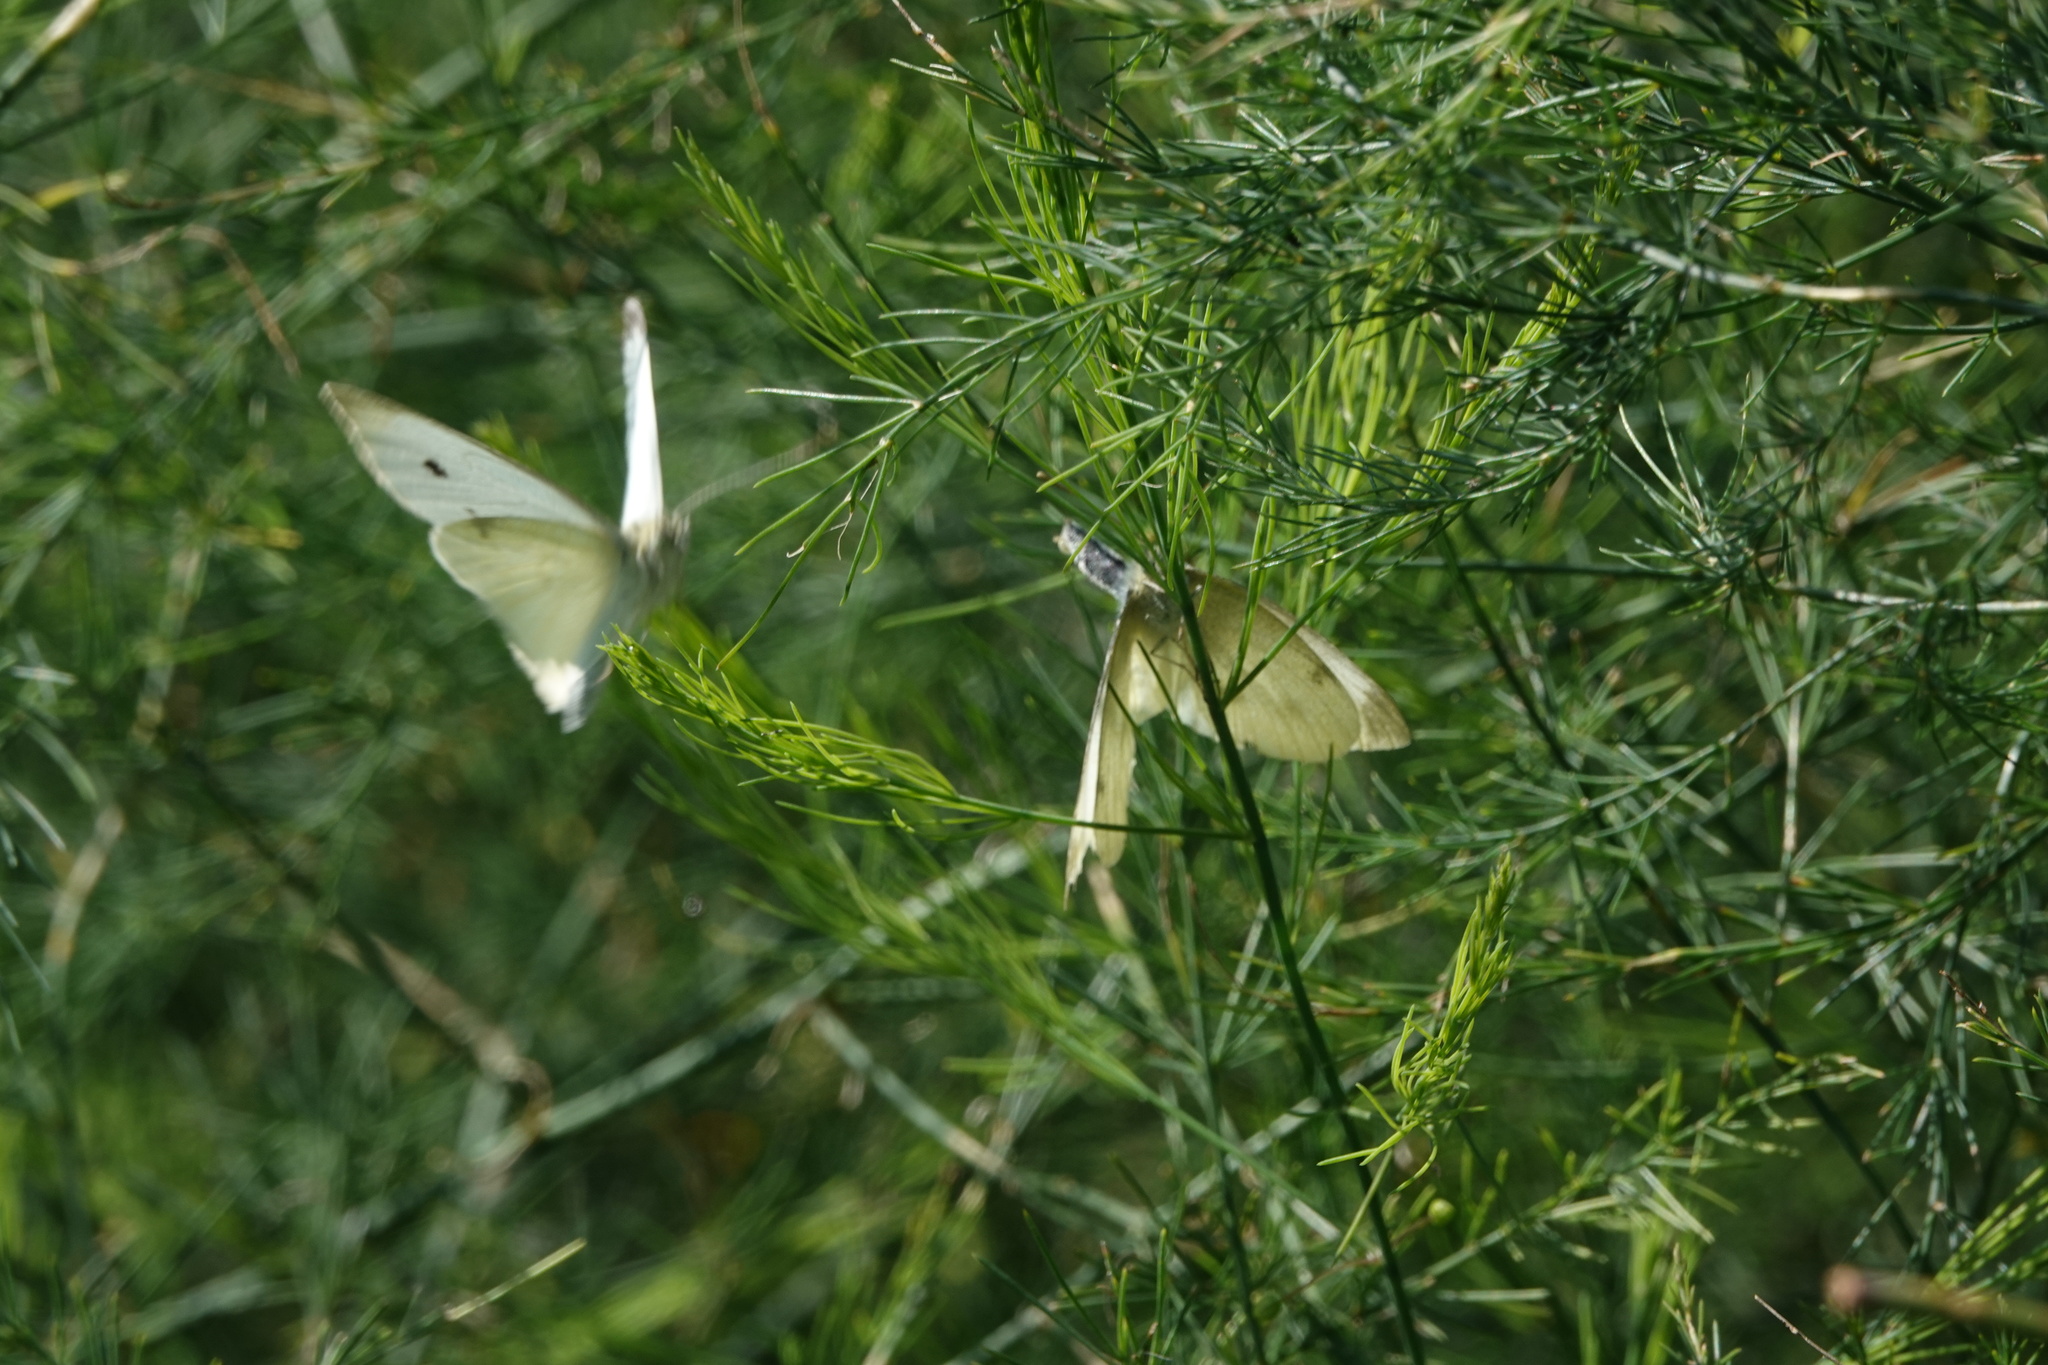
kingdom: Animalia
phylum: Arthropoda
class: Insecta
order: Lepidoptera
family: Pieridae
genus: Pieris
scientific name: Pieris rapae
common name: Small white
